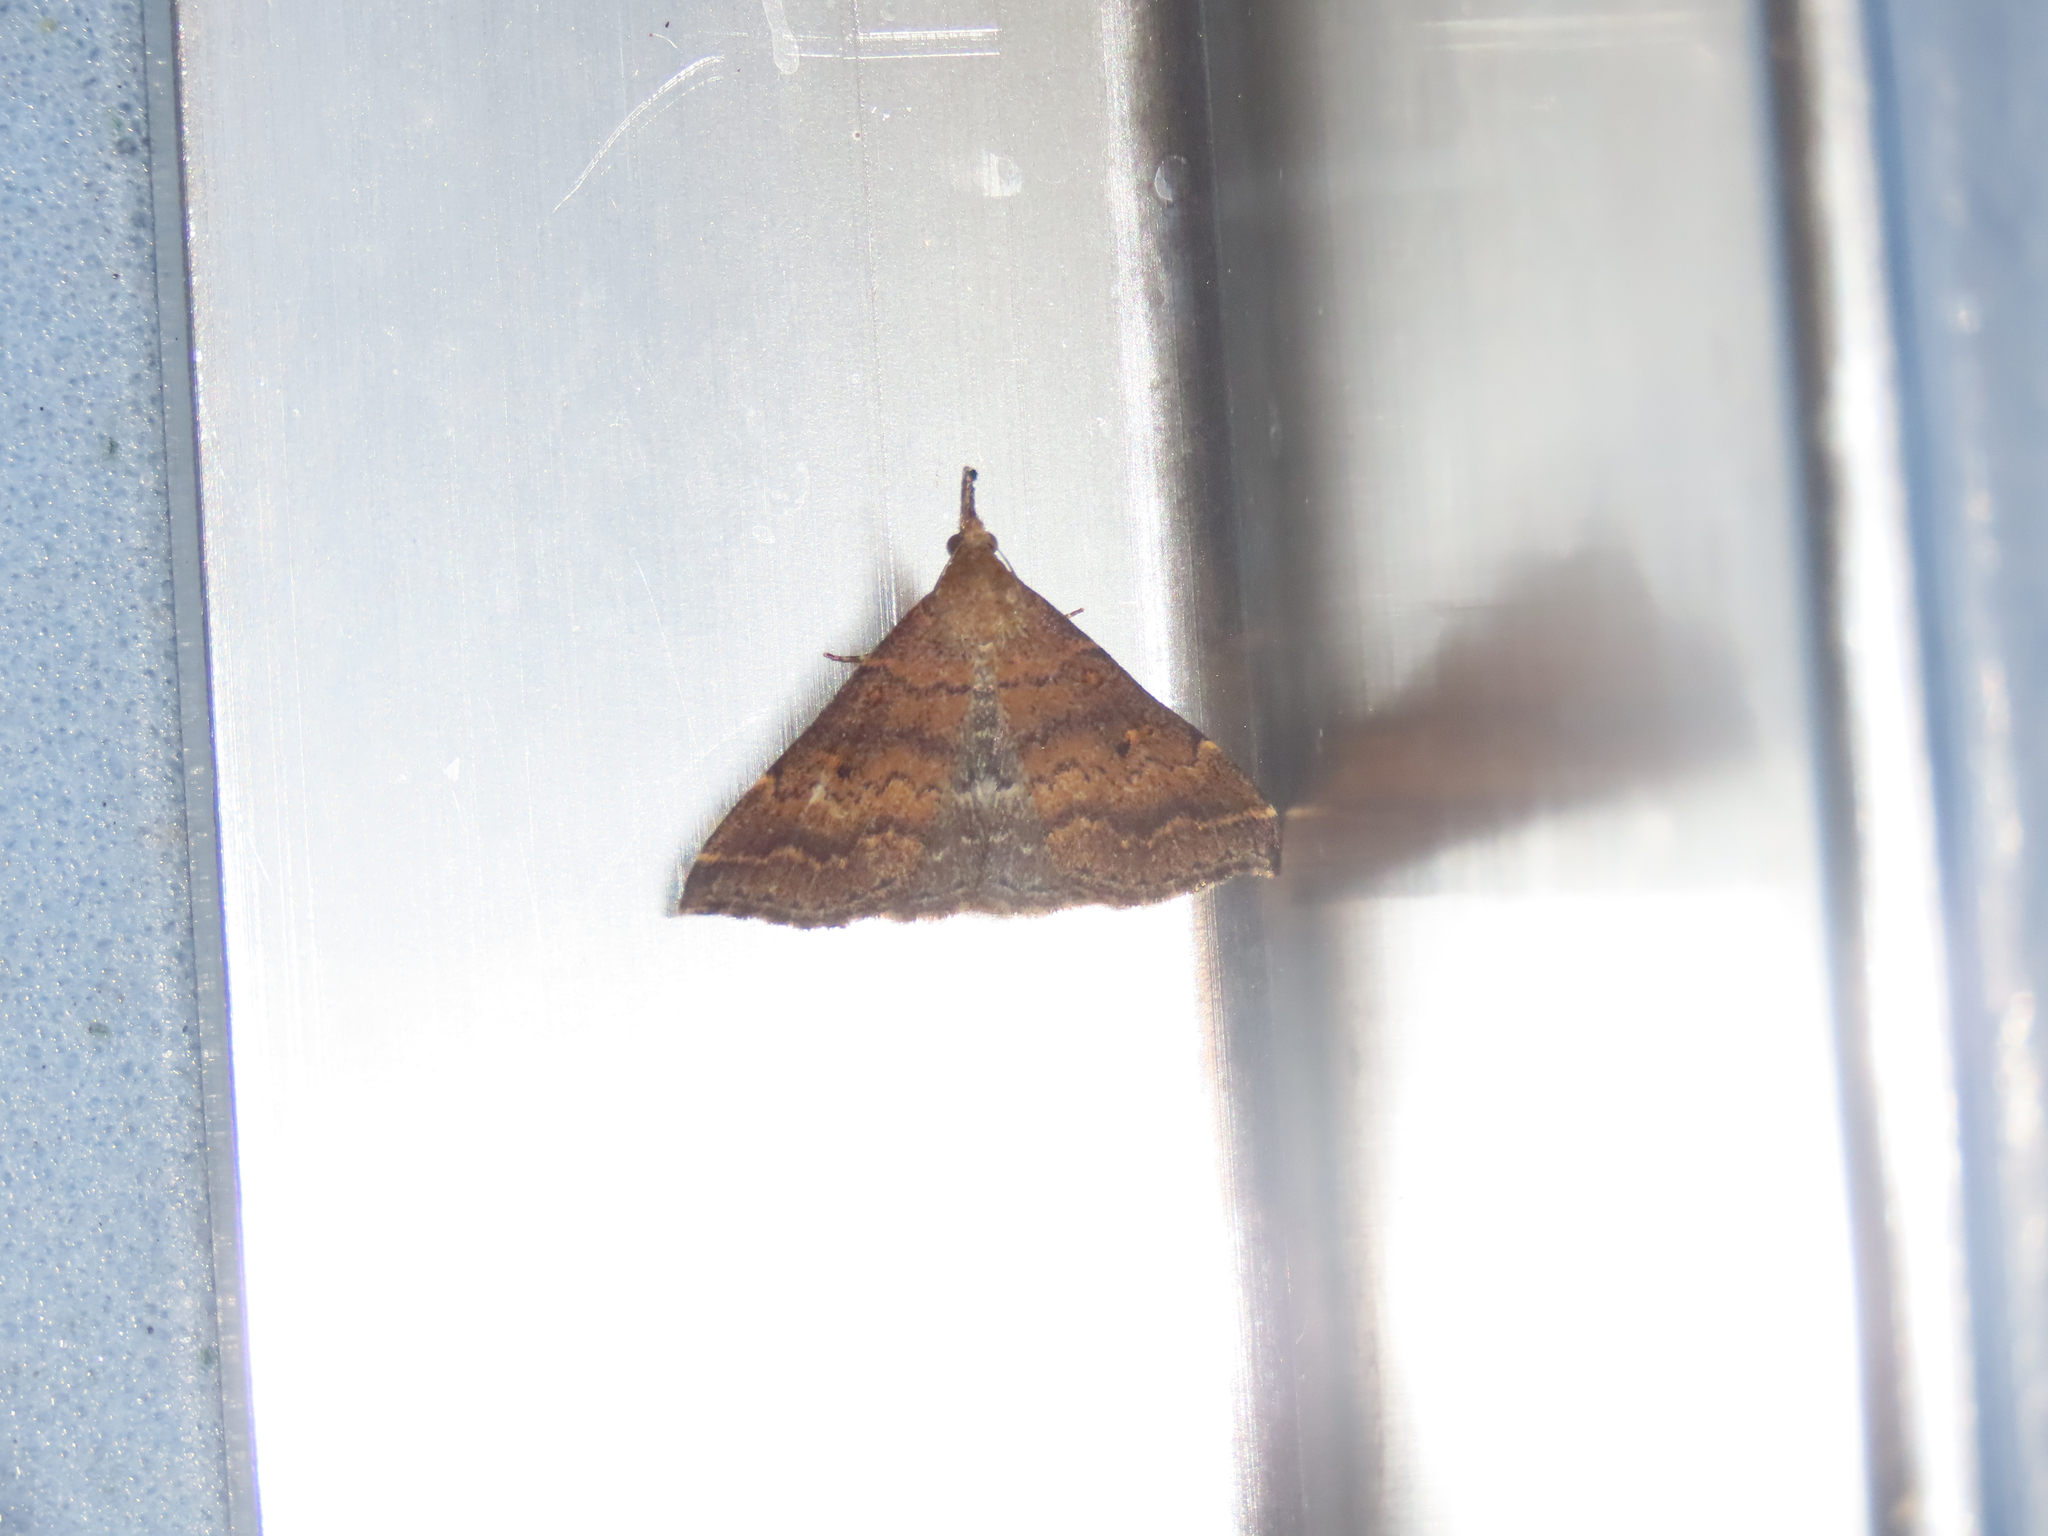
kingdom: Animalia
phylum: Arthropoda
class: Insecta
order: Lepidoptera
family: Erebidae
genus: Renia
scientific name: Renia factiosalis
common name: Sociable renia moth
